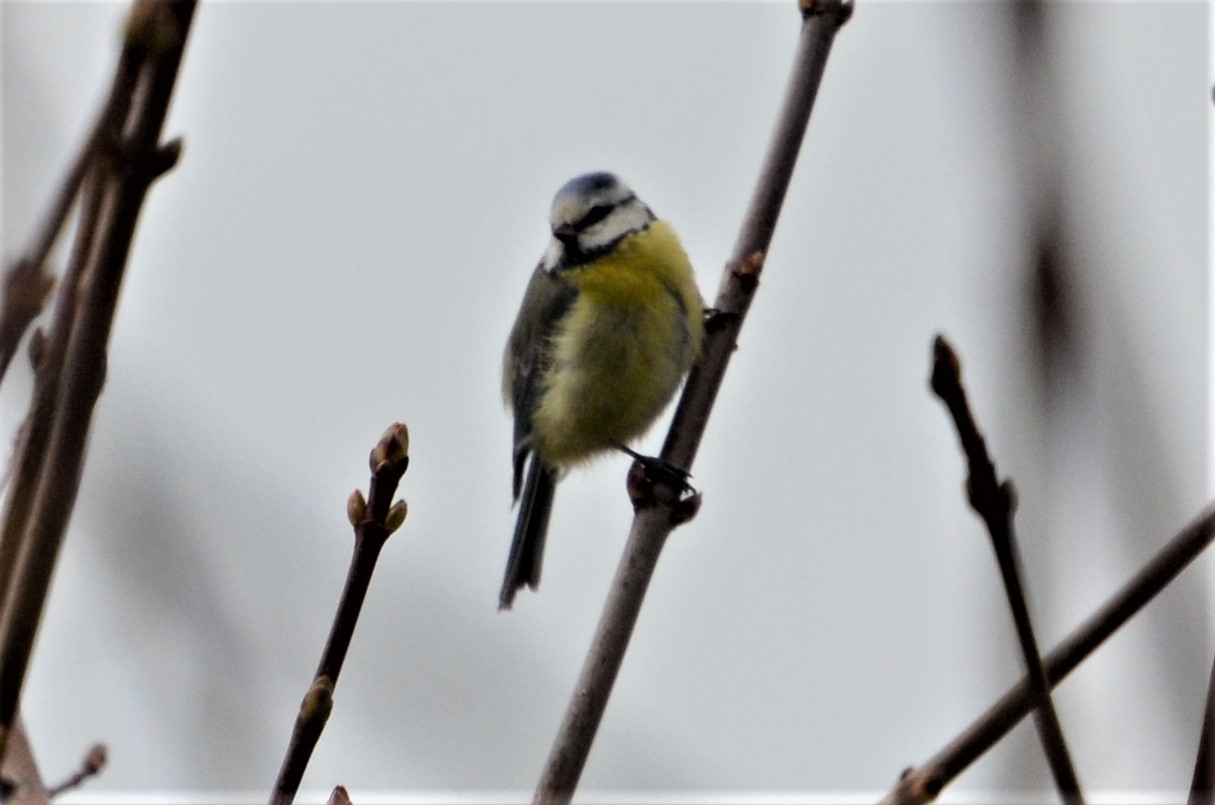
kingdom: Animalia
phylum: Chordata
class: Aves
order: Passeriformes
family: Paridae
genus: Cyanistes
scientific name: Cyanistes caeruleus
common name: Eurasian blue tit
